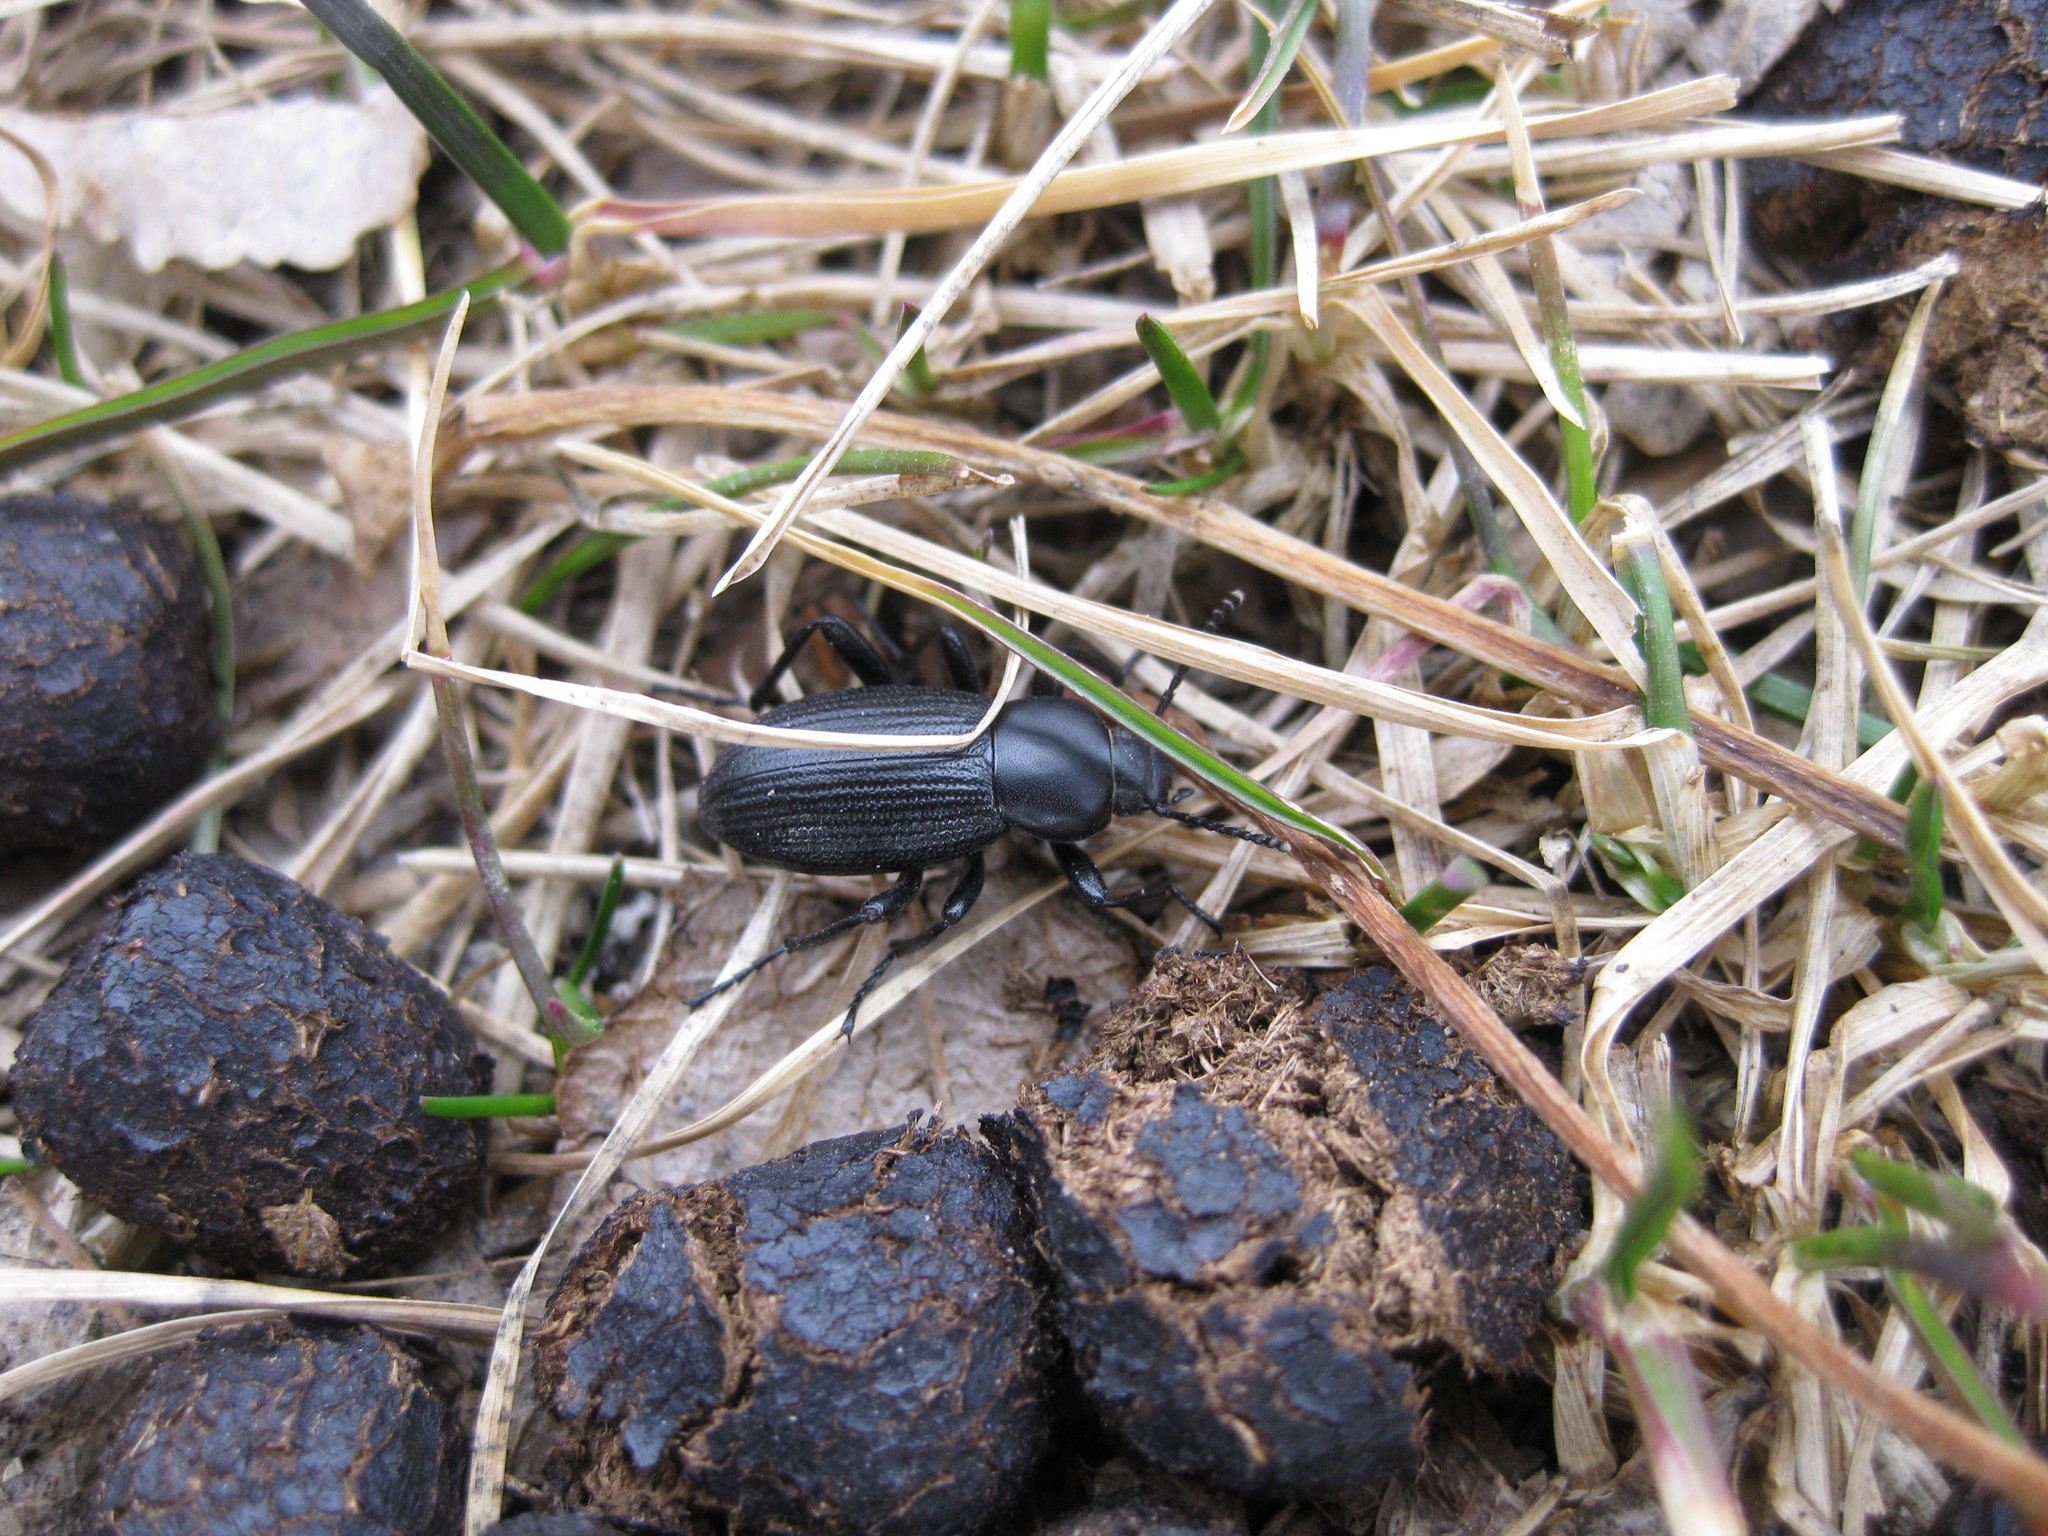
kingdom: Animalia
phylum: Arthropoda
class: Insecta
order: Coleoptera
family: Tenebrionidae
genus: Eleodes
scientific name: Eleodes carbonaria
